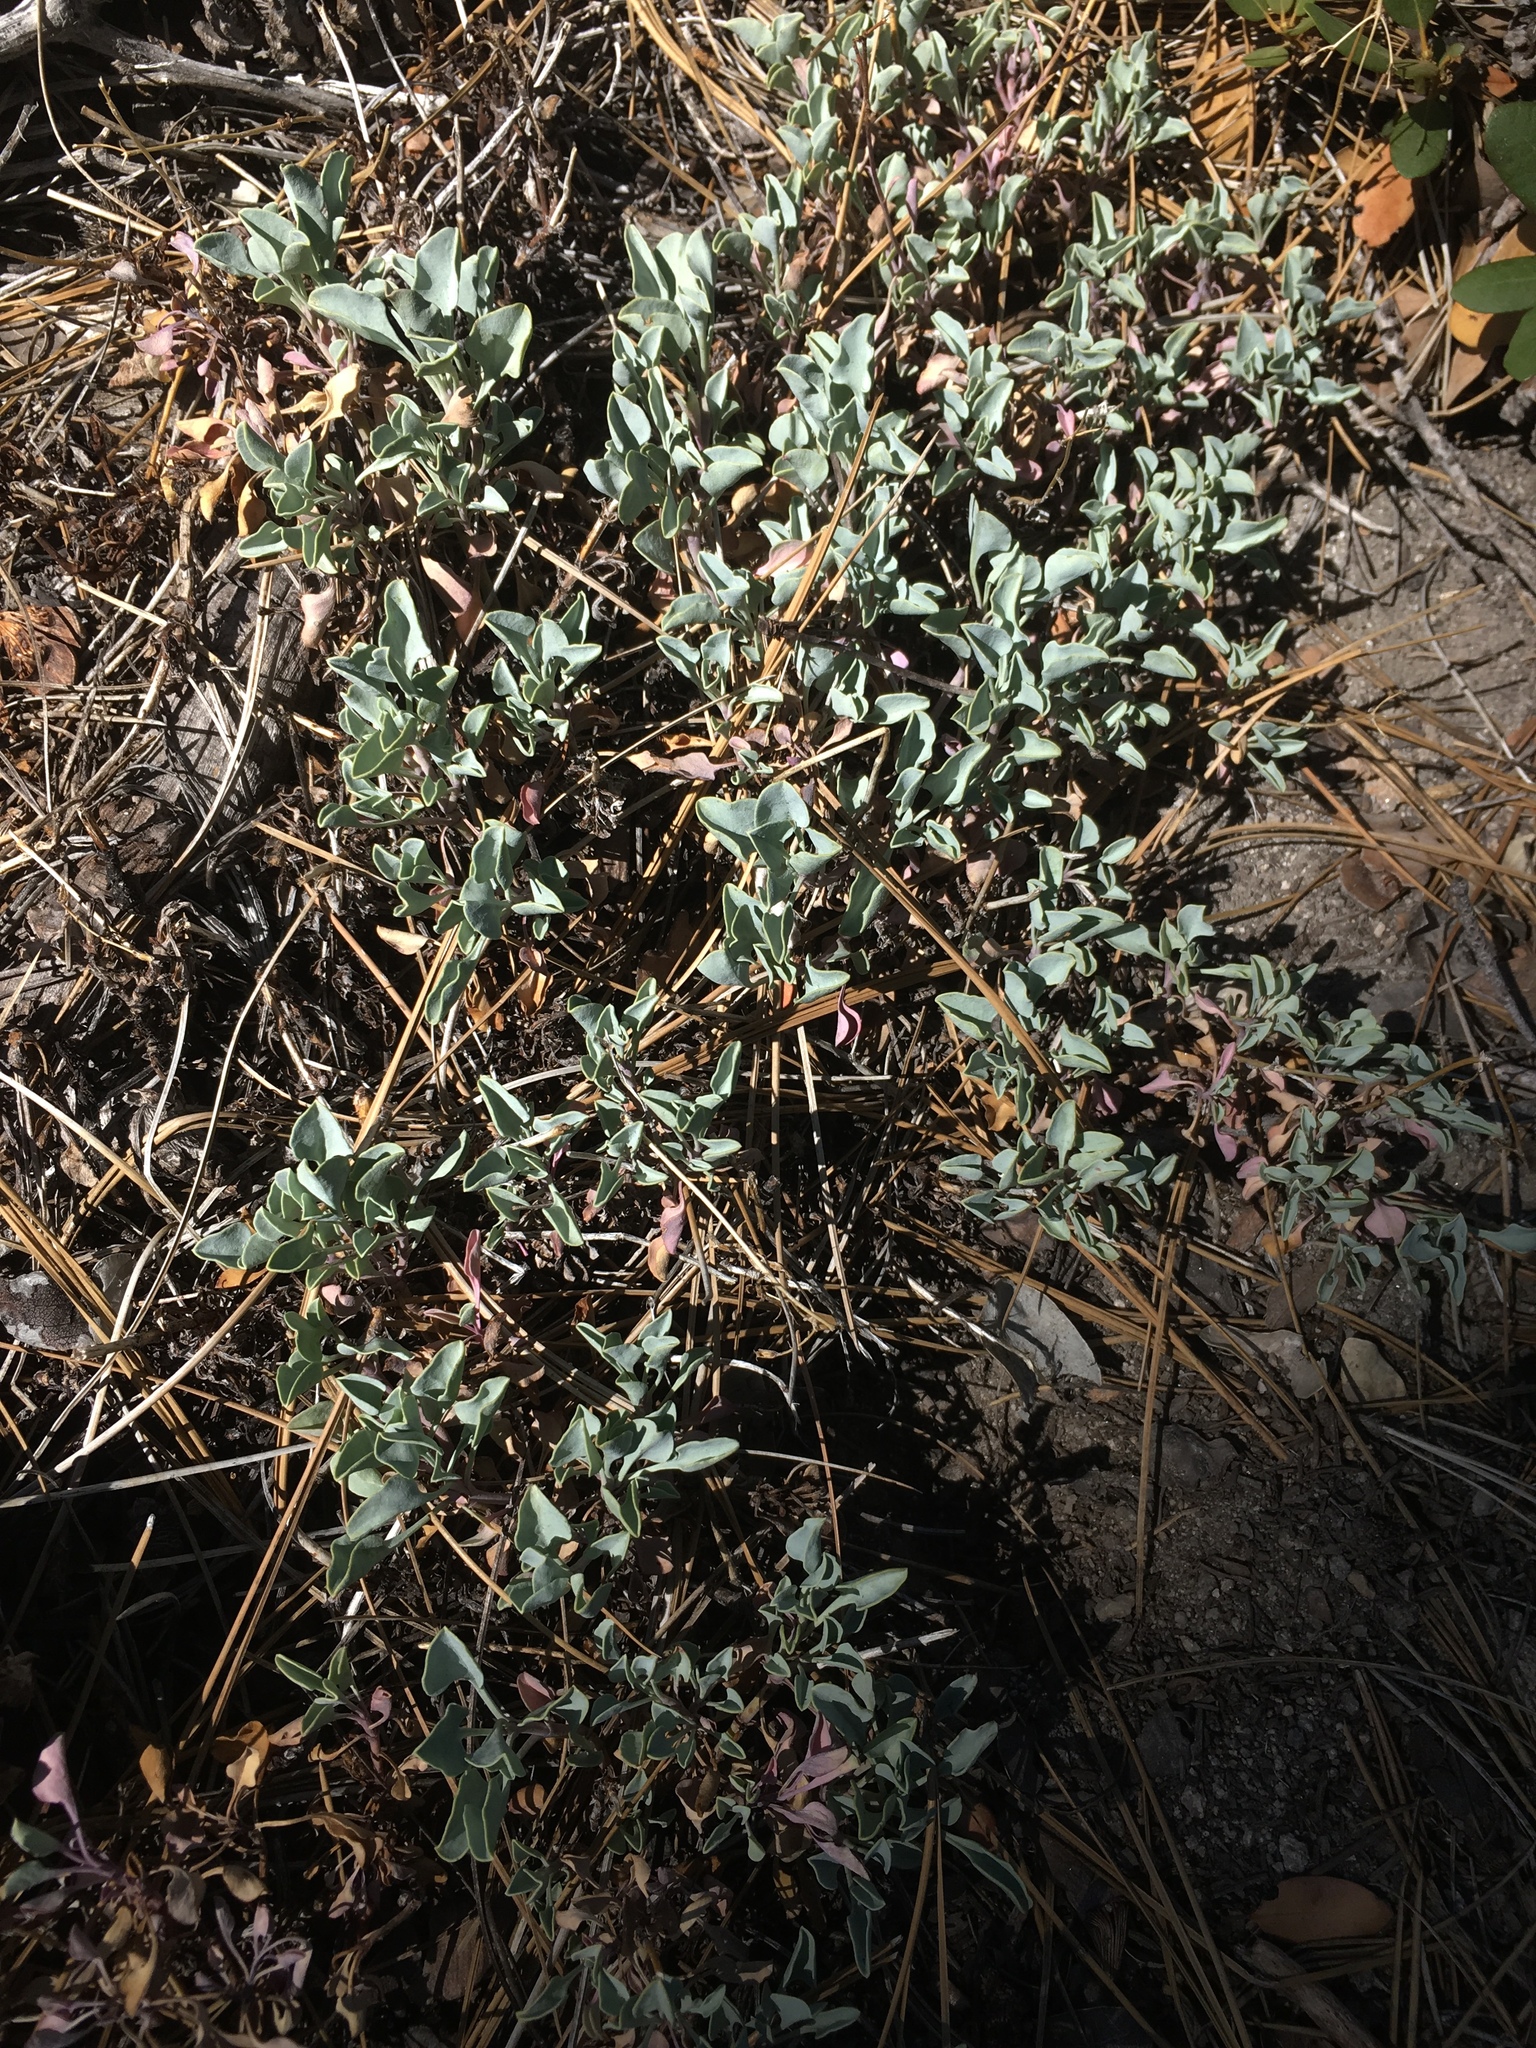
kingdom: Plantae
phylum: Tracheophyta
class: Magnoliopsida
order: Lamiales
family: Plantaginaceae
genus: Penstemon
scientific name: Penstemon caesius
